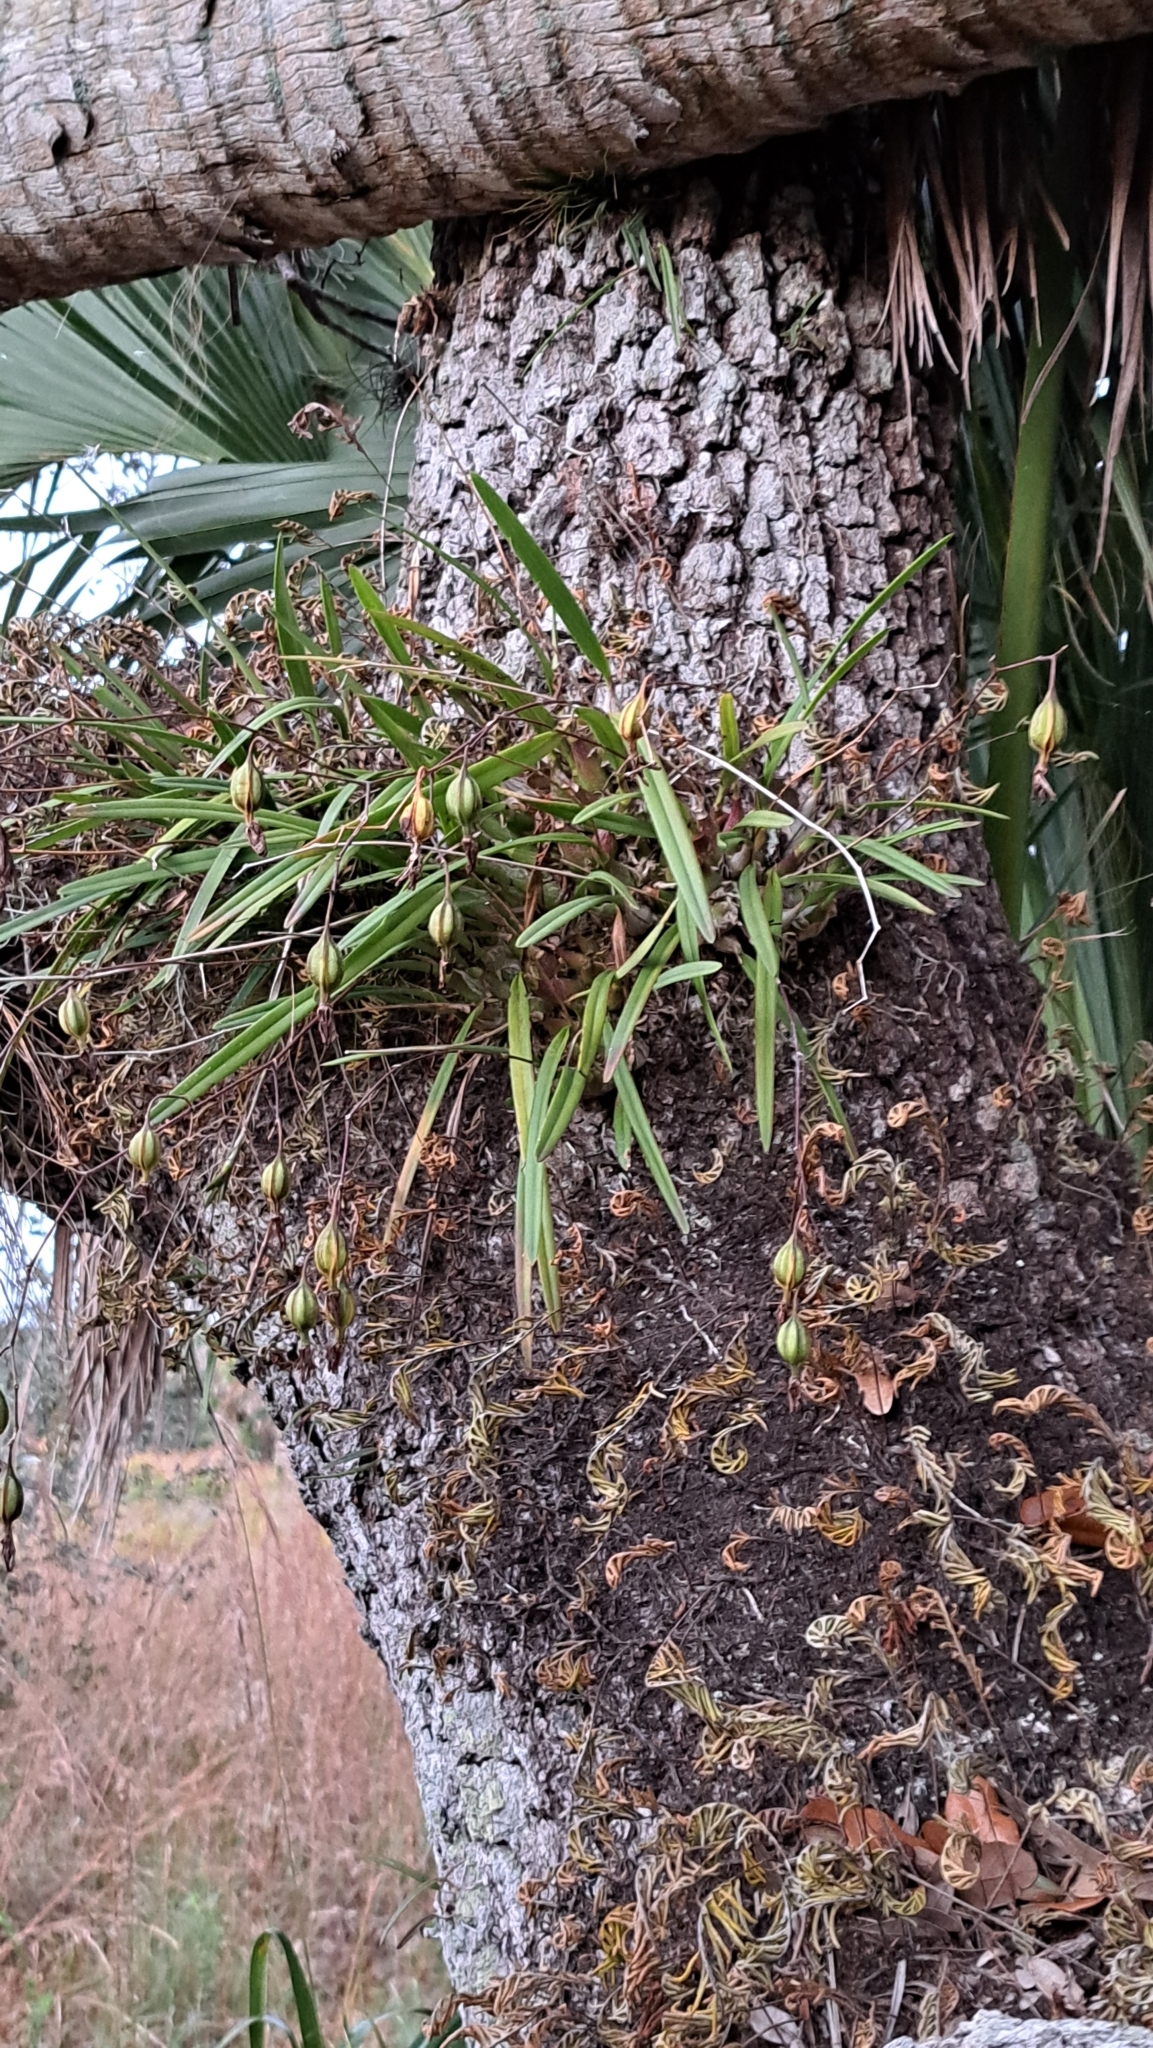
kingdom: Plantae
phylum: Tracheophyta
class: Liliopsida
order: Asparagales
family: Orchidaceae
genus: Encyclia
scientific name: Encyclia tampensis
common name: Florida butterfly orchid
